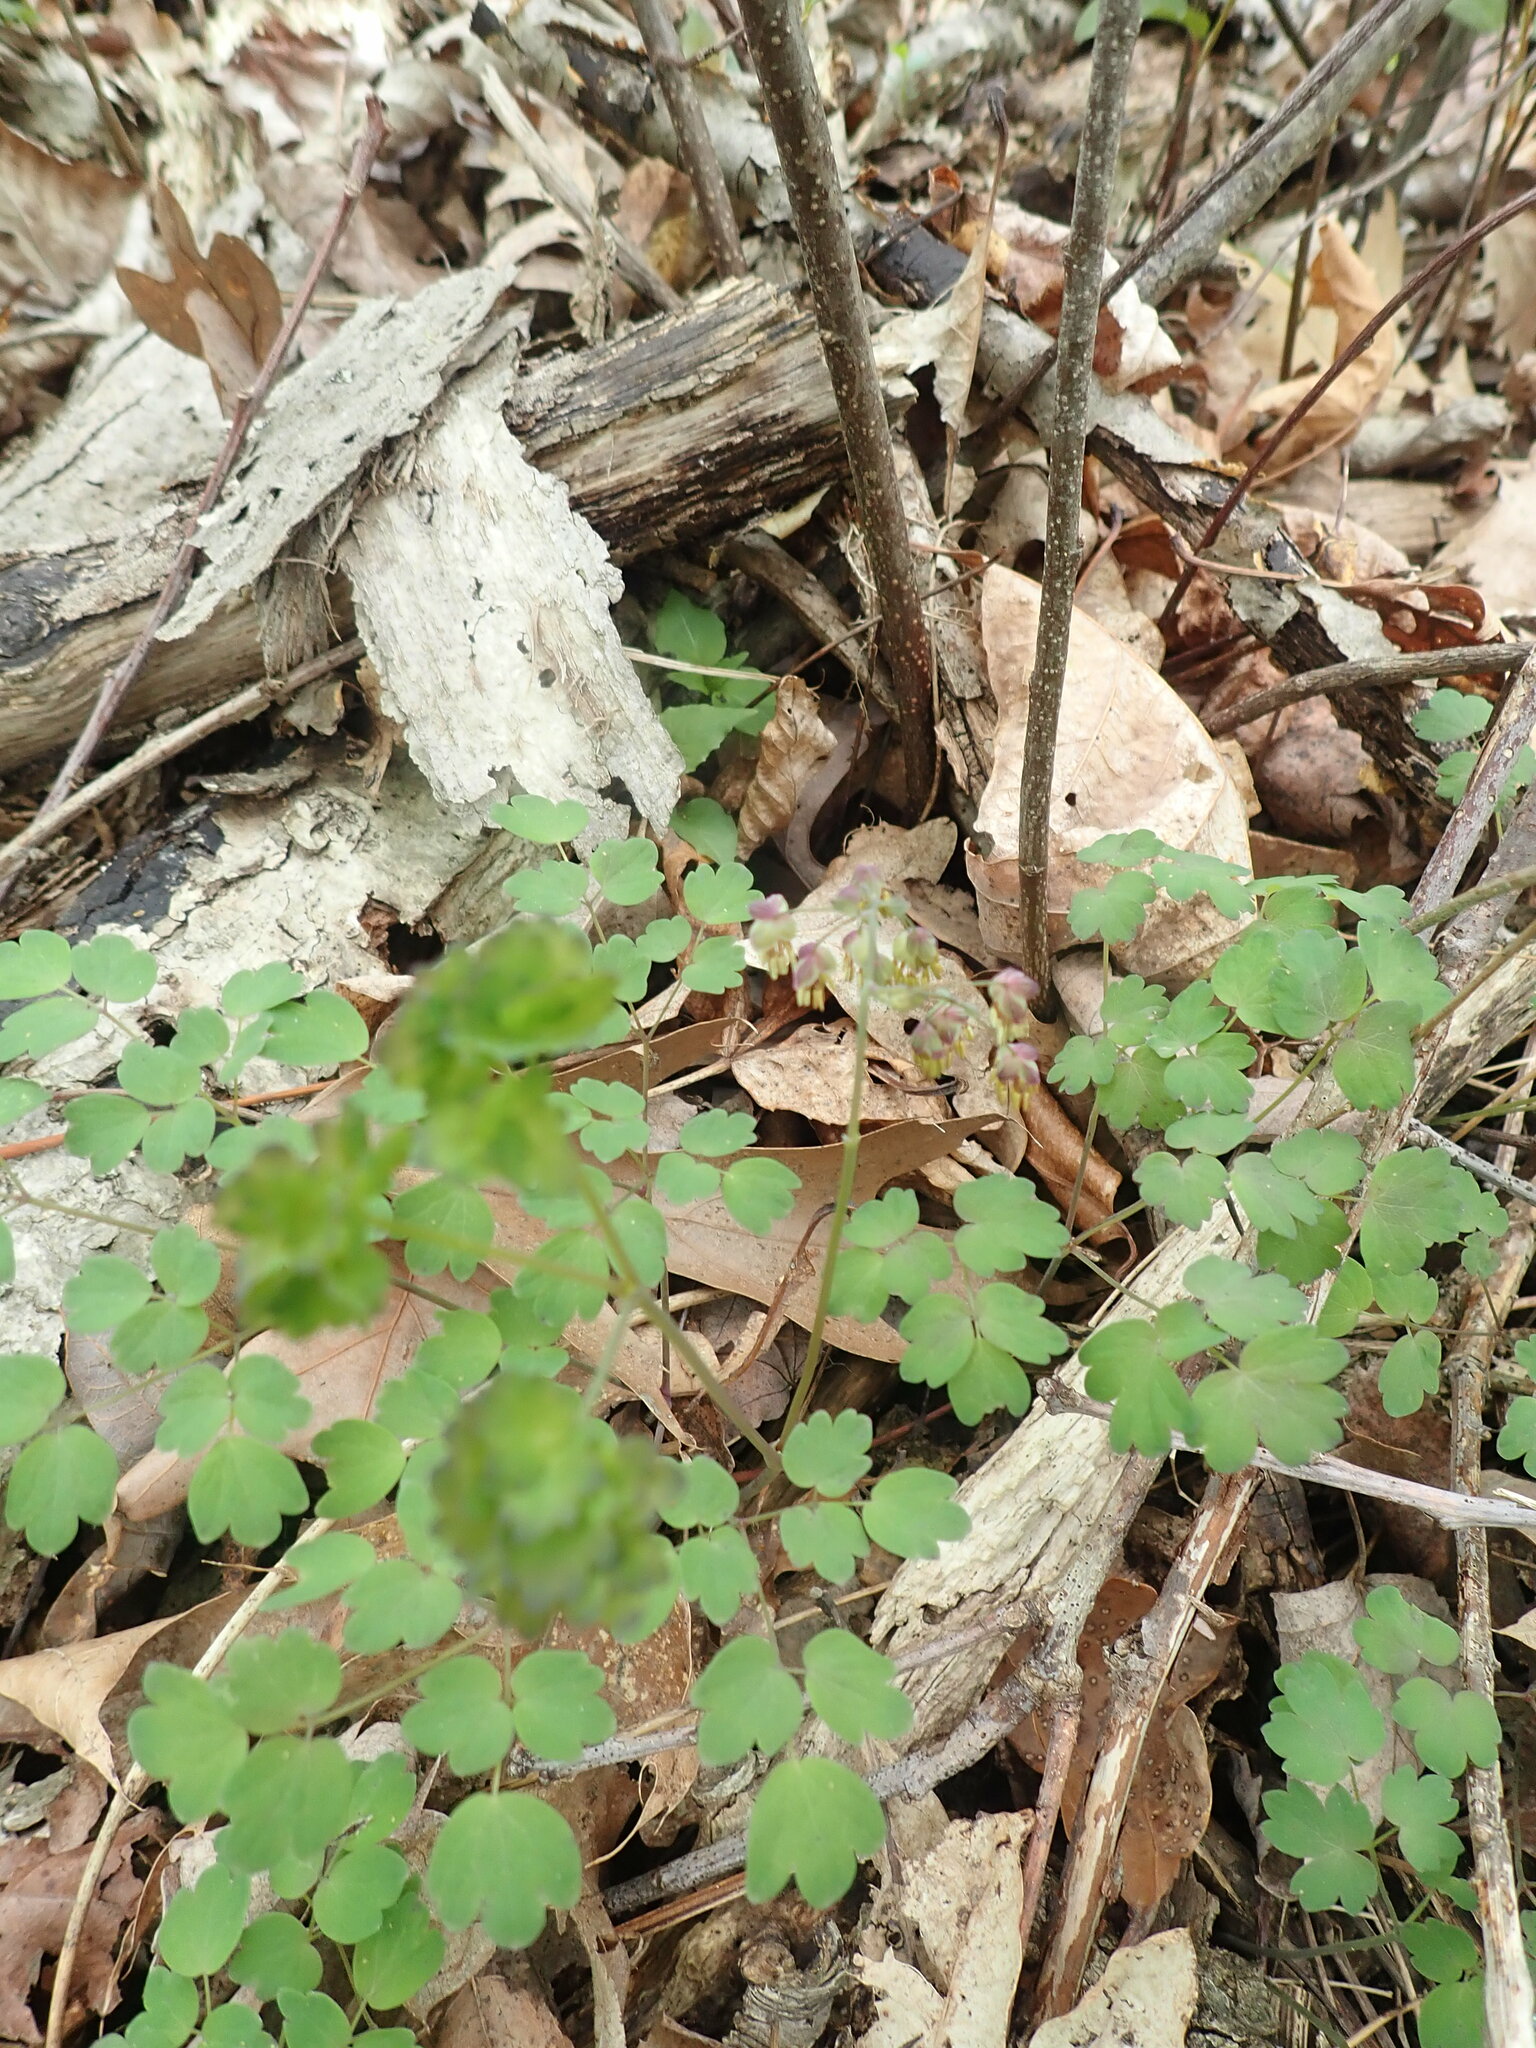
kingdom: Plantae
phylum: Tracheophyta
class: Magnoliopsida
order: Ranunculales
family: Ranunculaceae
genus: Thalictrum
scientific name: Thalictrum dioicum
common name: Early meadow-rue
